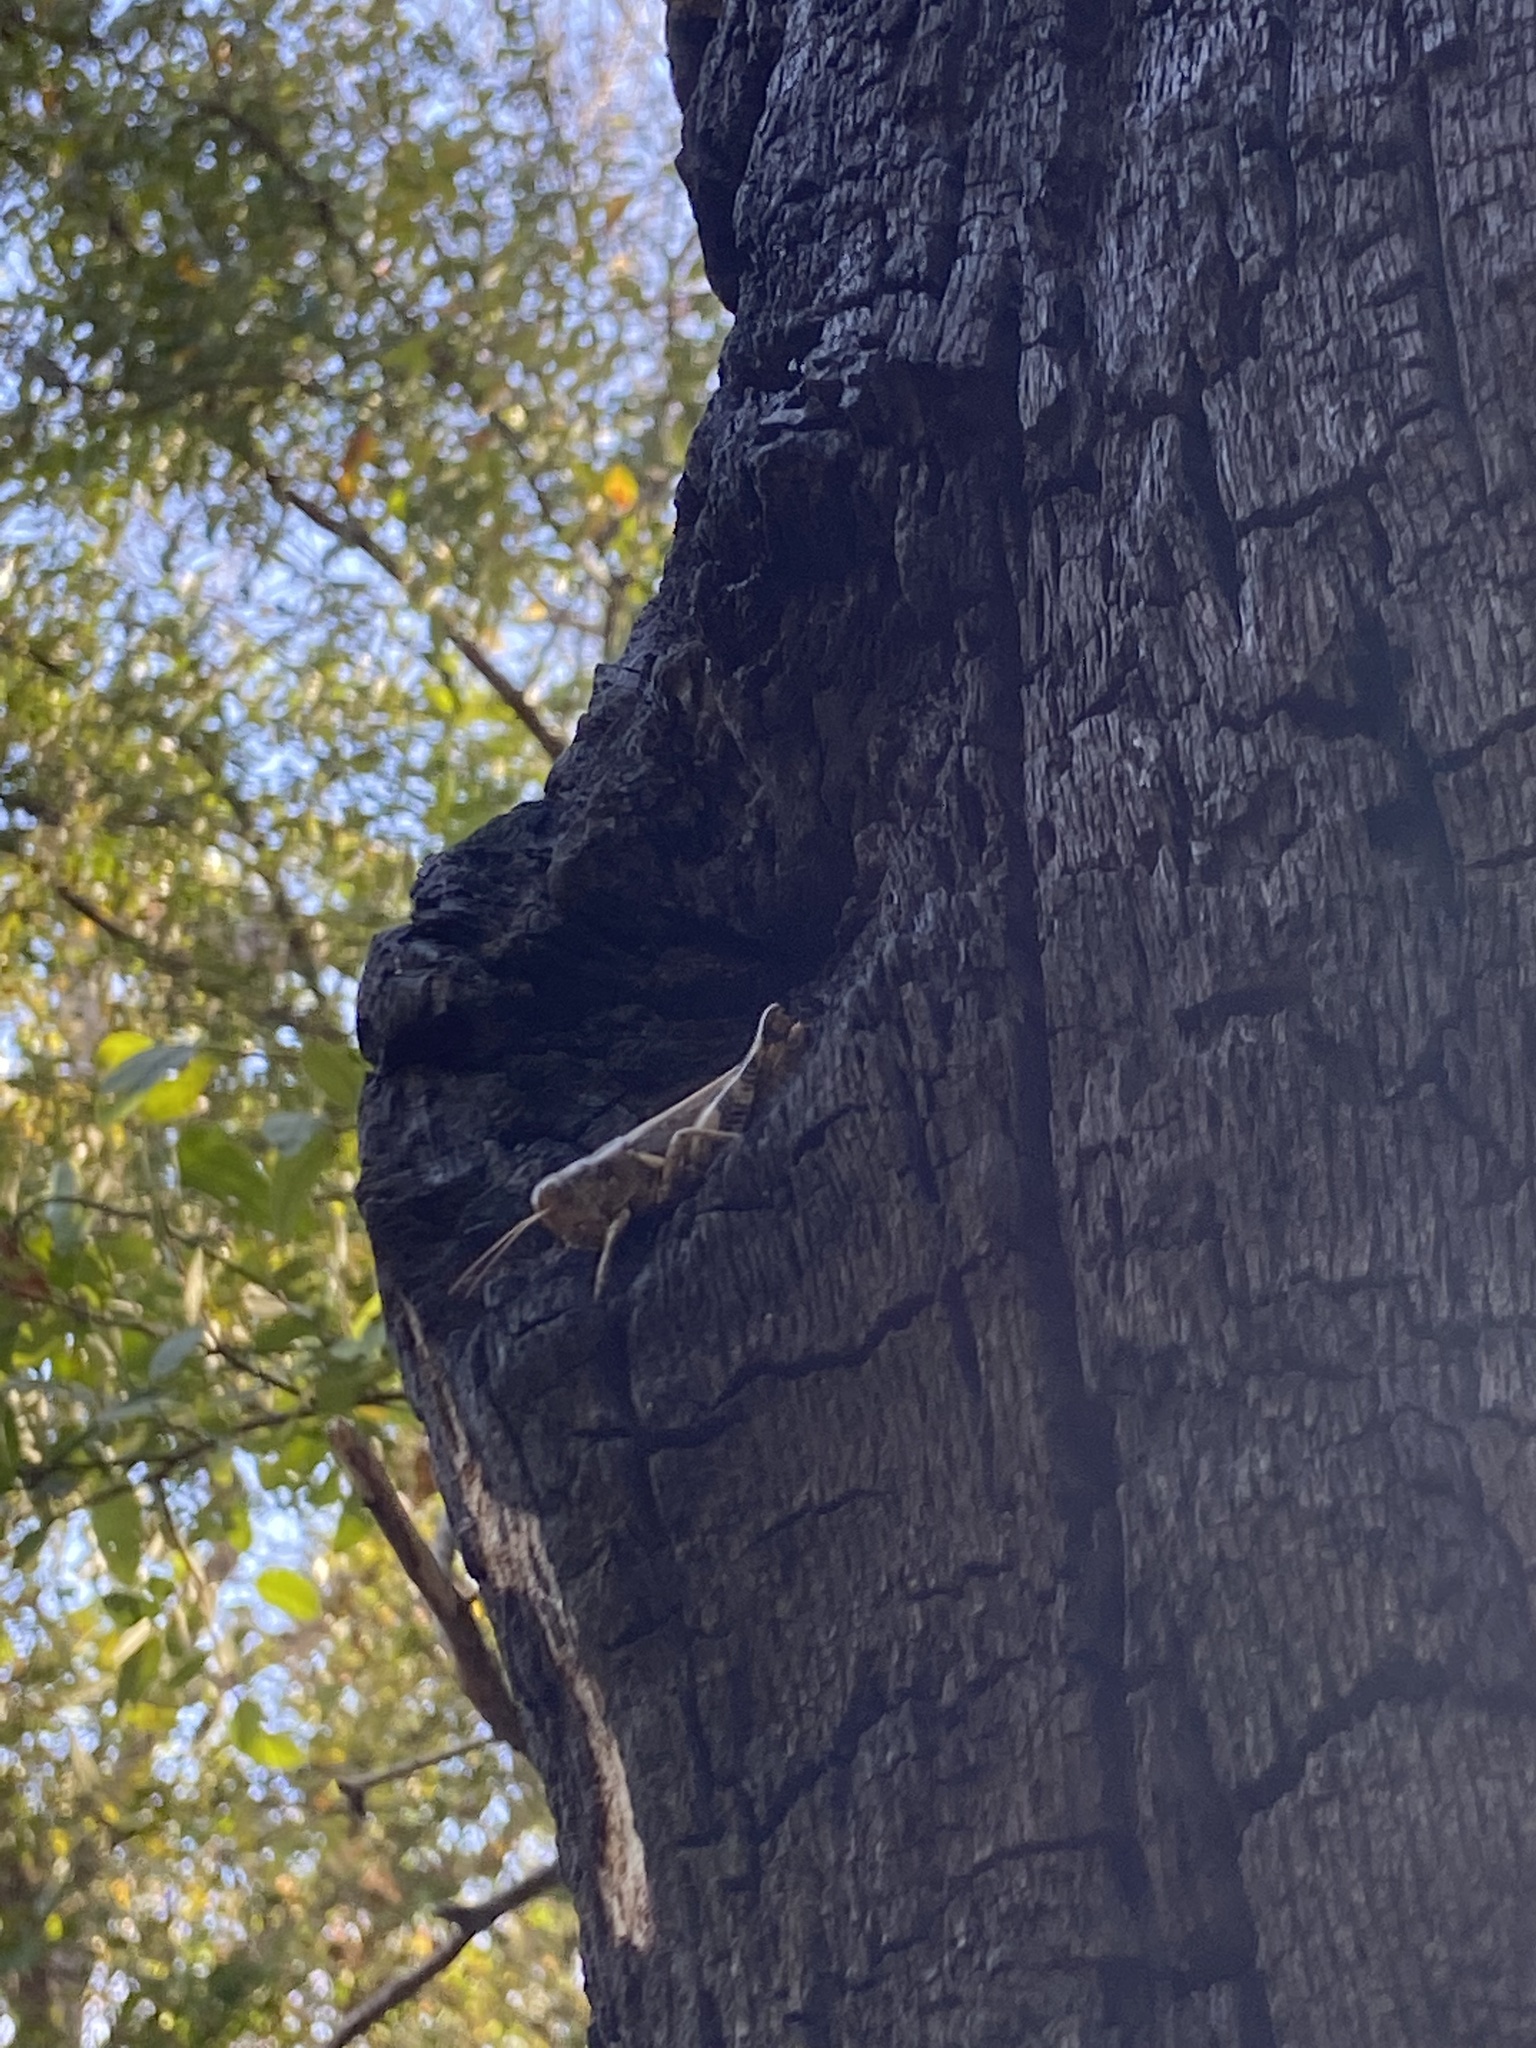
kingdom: Animalia
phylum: Arthropoda
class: Insecta
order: Orthoptera
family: Acrididae
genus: Melanoplus
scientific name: Melanoplus ponderosus
